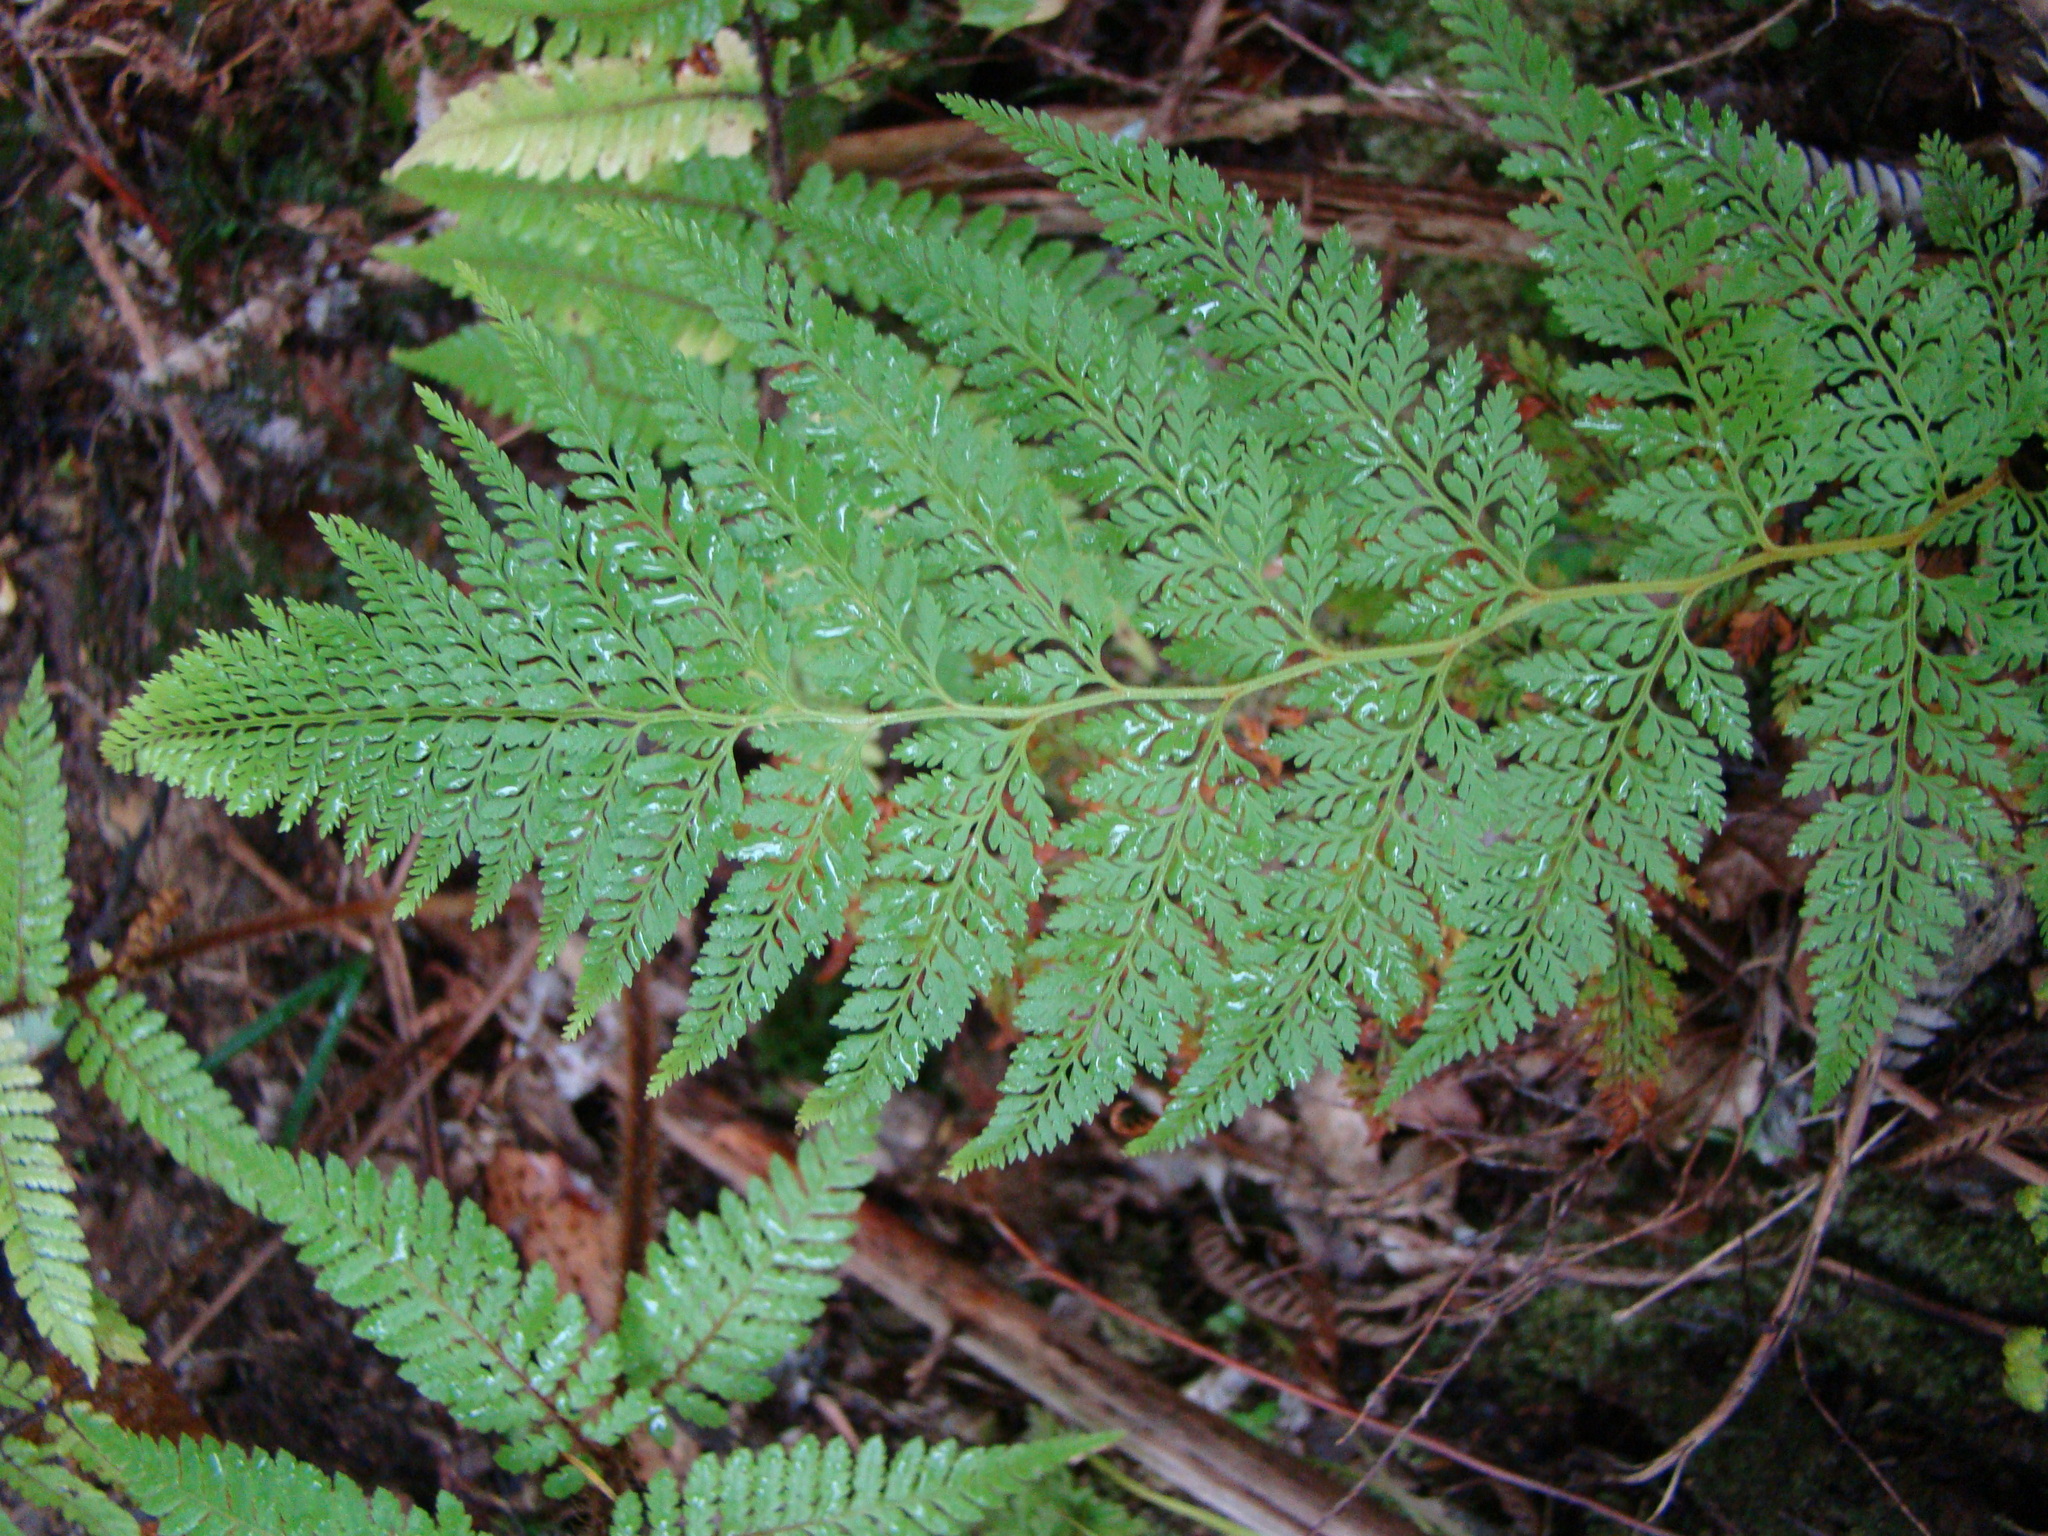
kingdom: Plantae
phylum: Tracheophyta
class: Polypodiopsida
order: Polypodiales
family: Dennstaedtiaceae
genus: Paesia
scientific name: Paesia scaberula
